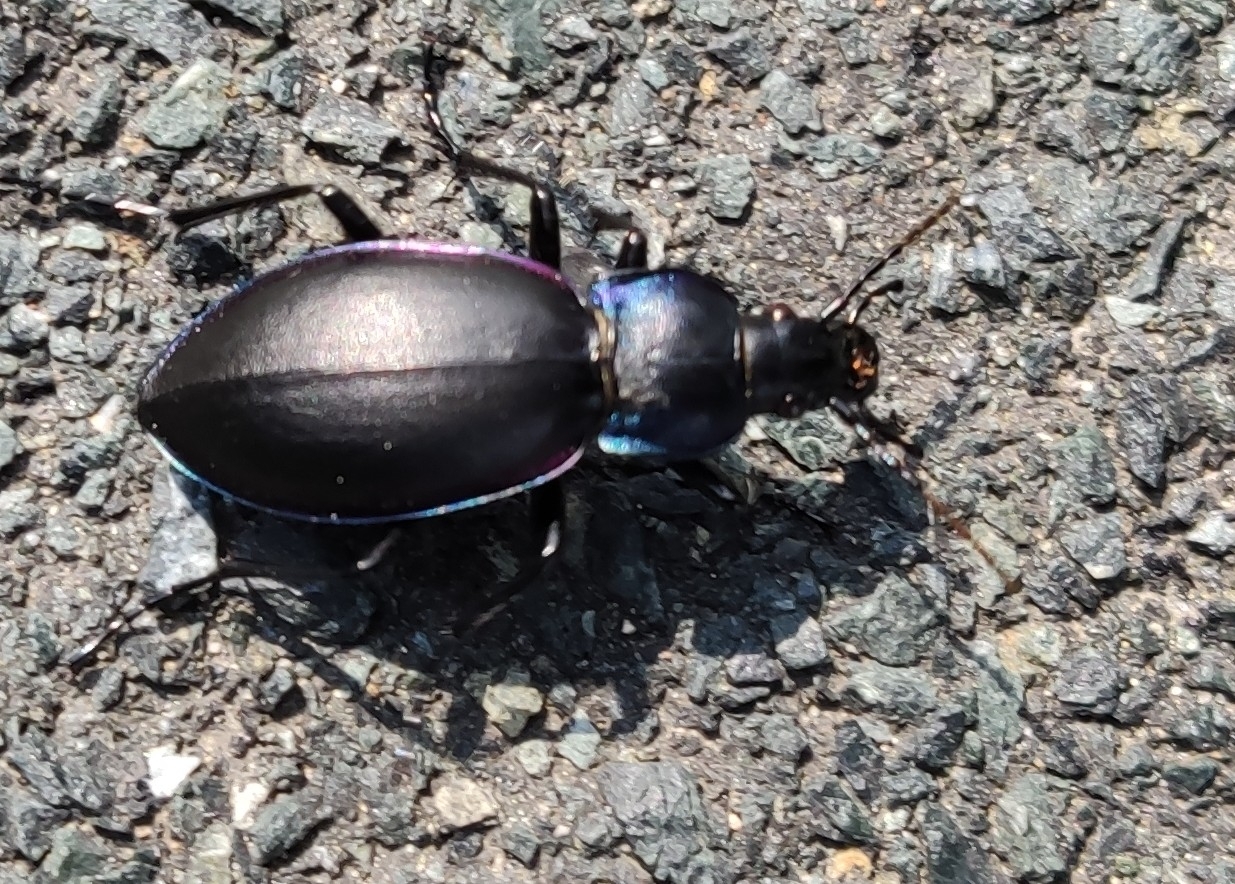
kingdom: Animalia
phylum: Arthropoda
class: Insecta
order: Coleoptera
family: Carabidae
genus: Carabus
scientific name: Carabus violaceus
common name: Violet ground beetle
